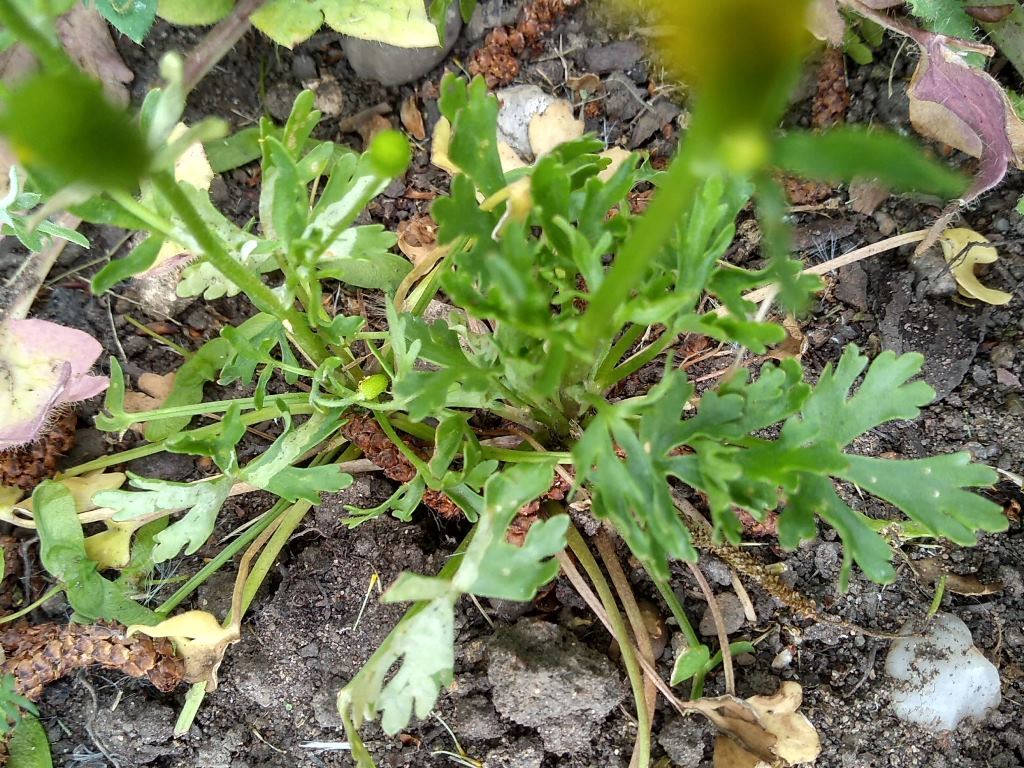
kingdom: Plantae
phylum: Tracheophyta
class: Magnoliopsida
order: Ranunculales
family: Ranunculaceae
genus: Ranunculus
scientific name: Ranunculus sceleratus
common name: Celery-leaved buttercup
